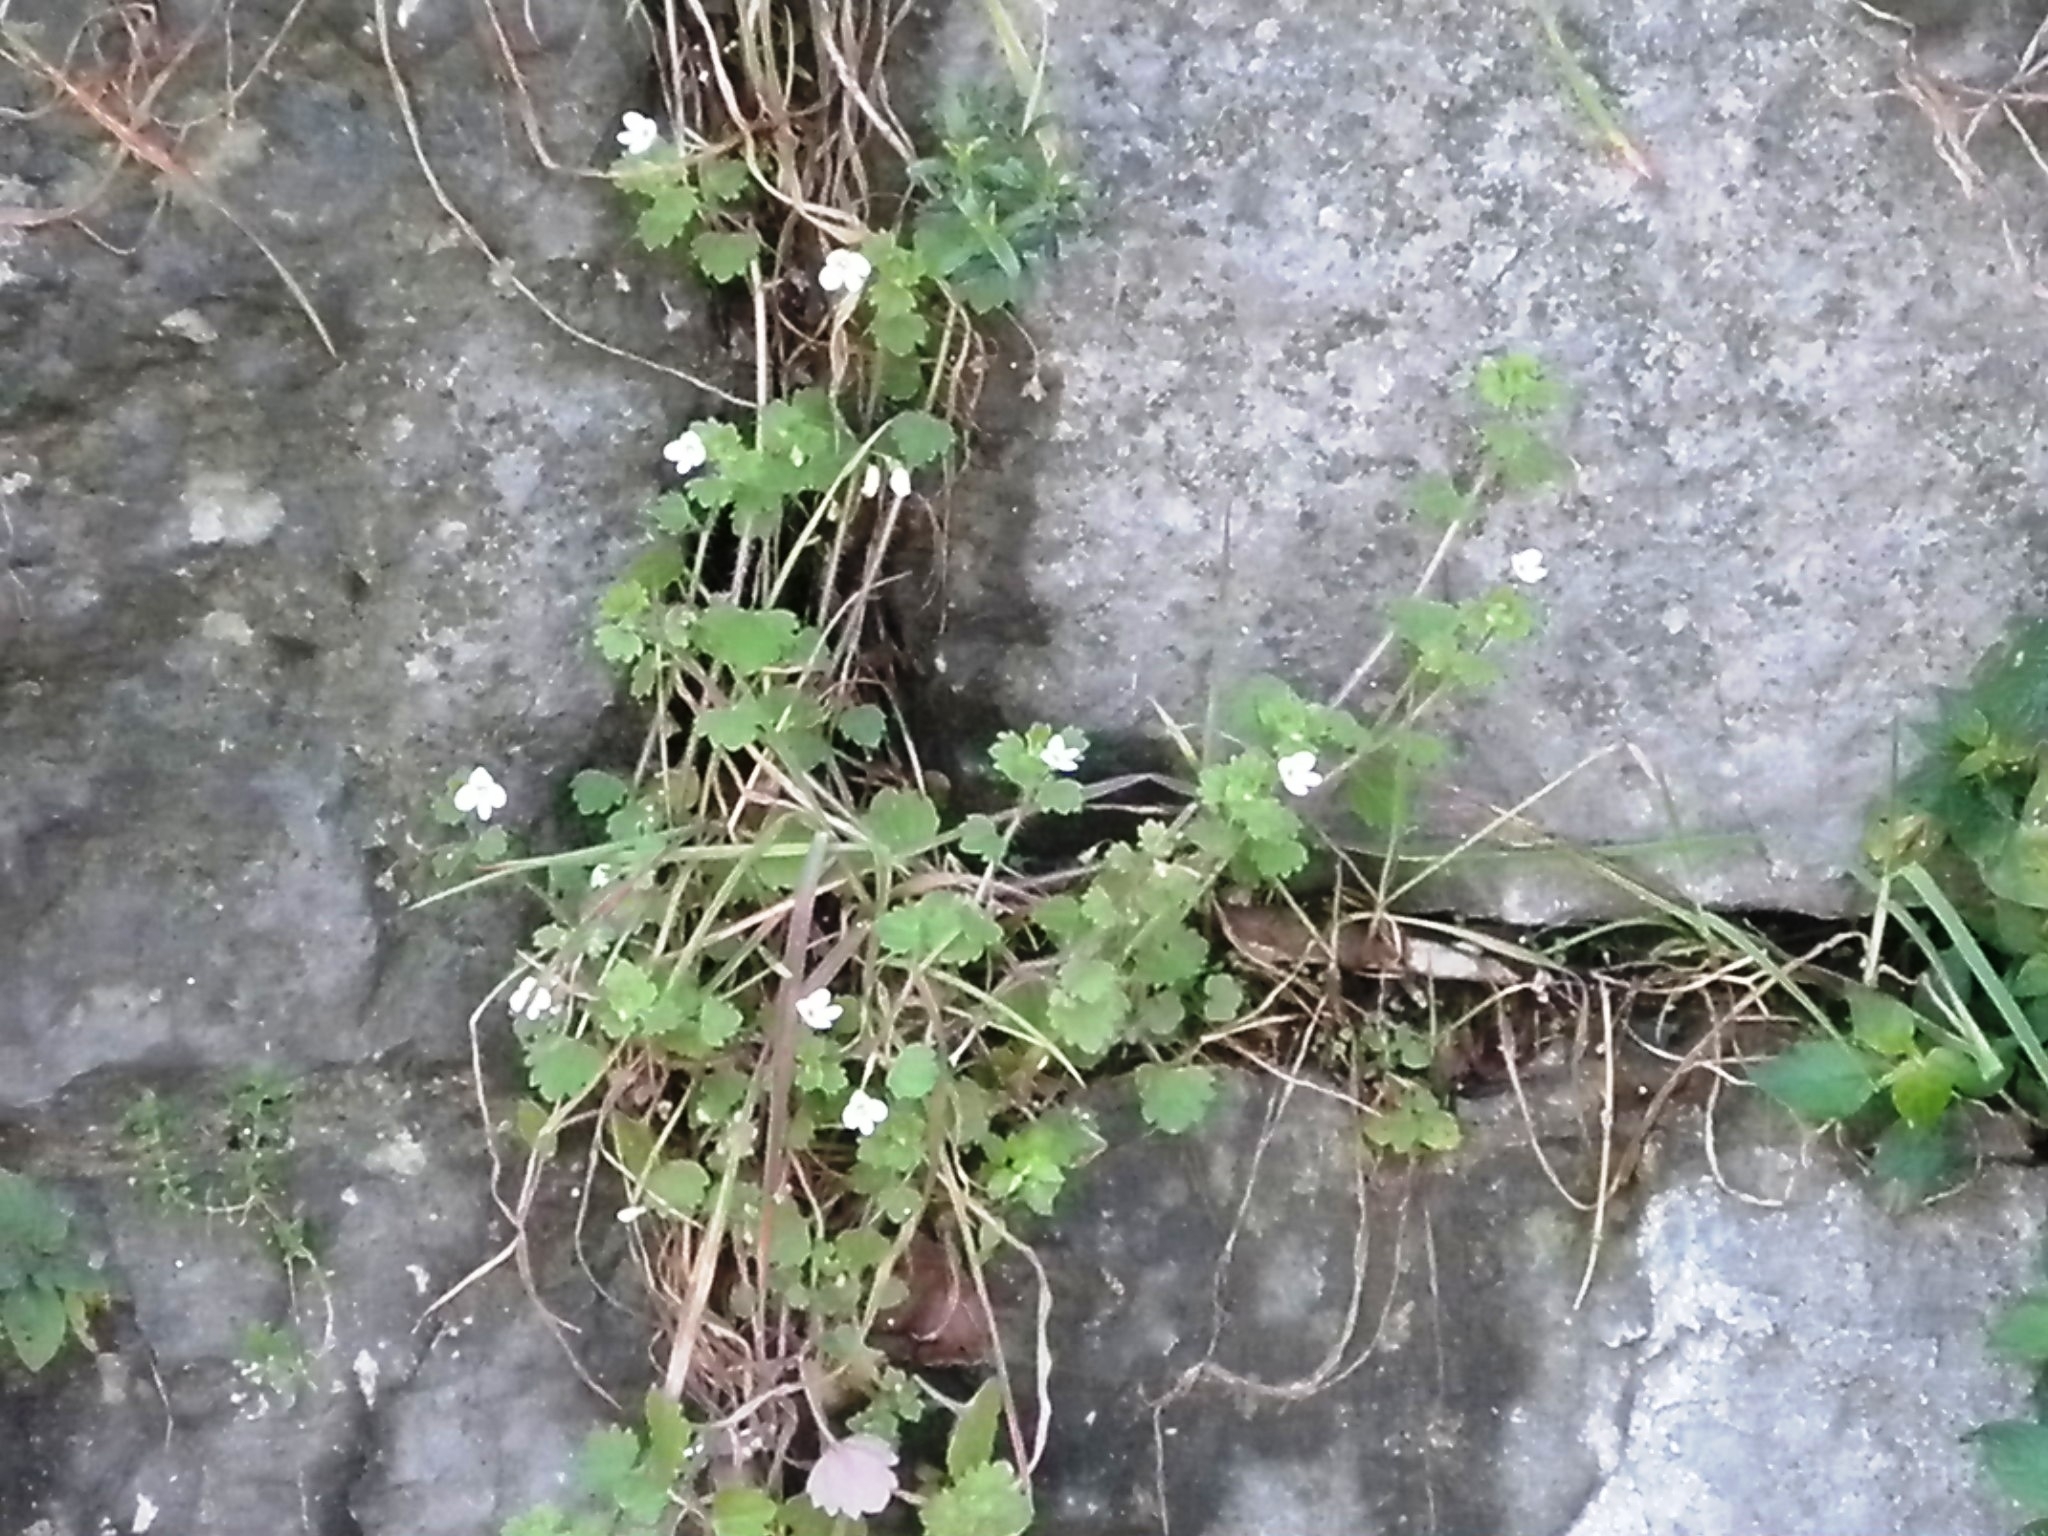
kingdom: Plantae
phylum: Tracheophyta
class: Magnoliopsida
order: Lamiales
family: Plantaginaceae
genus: Veronica
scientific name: Veronica cymbalaria
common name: Pale speedwell
